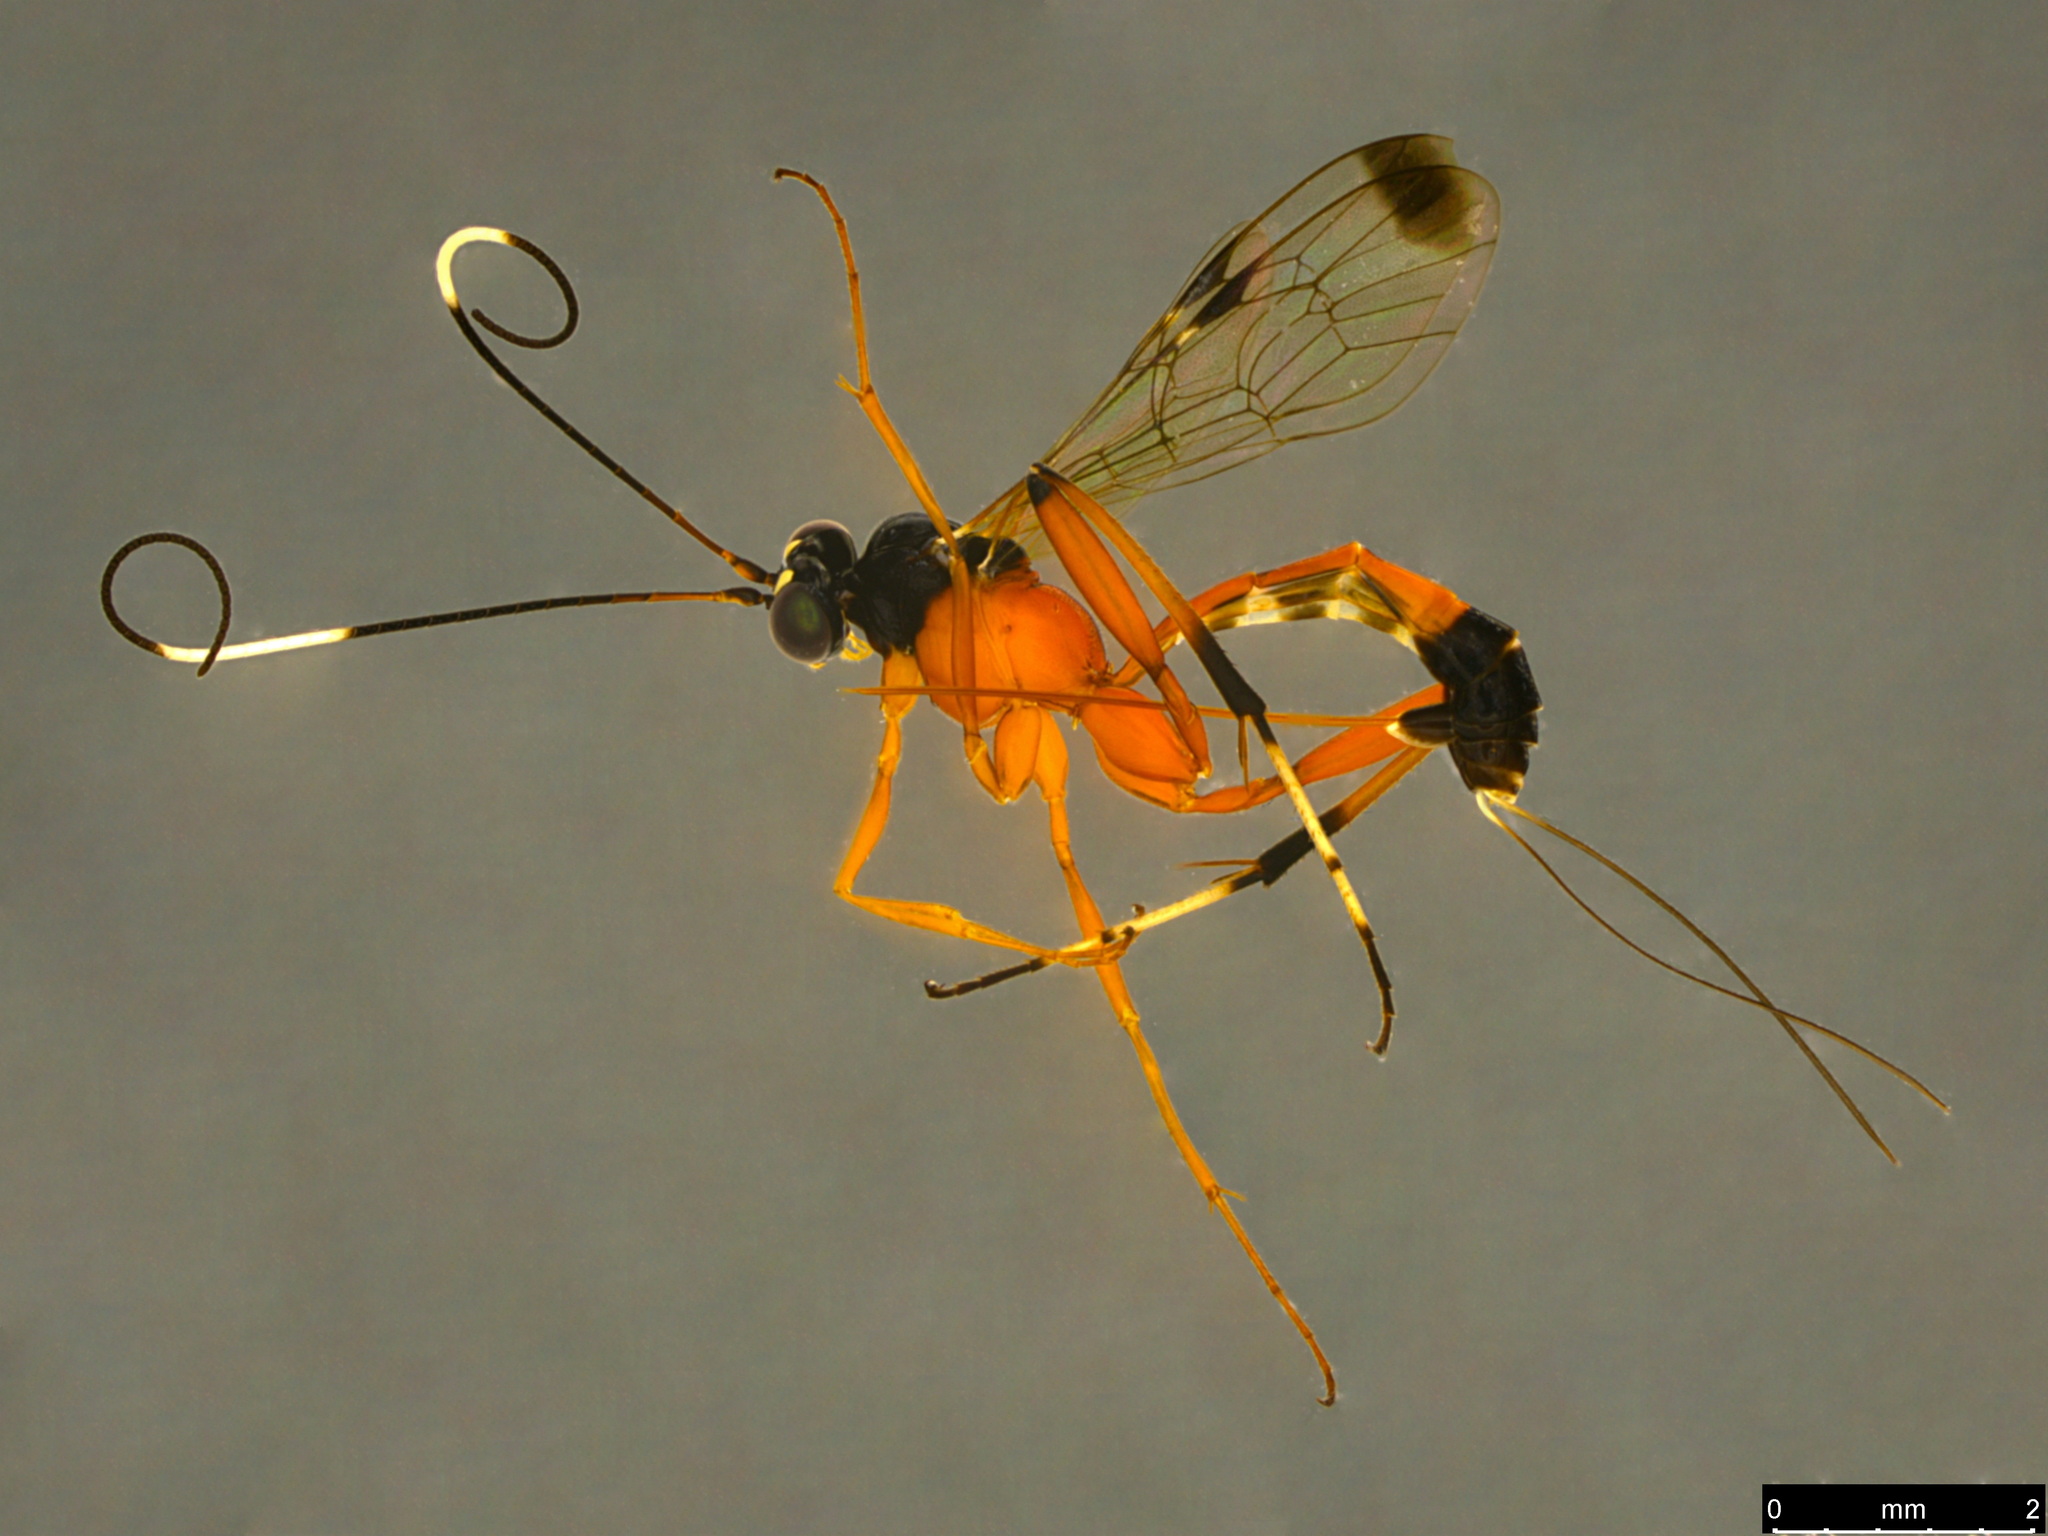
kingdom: Animalia
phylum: Arthropoda
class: Insecta
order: Hymenoptera
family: Ichneumonidae
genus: Leptobatopsis
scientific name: Leptobatopsis mesominiata
